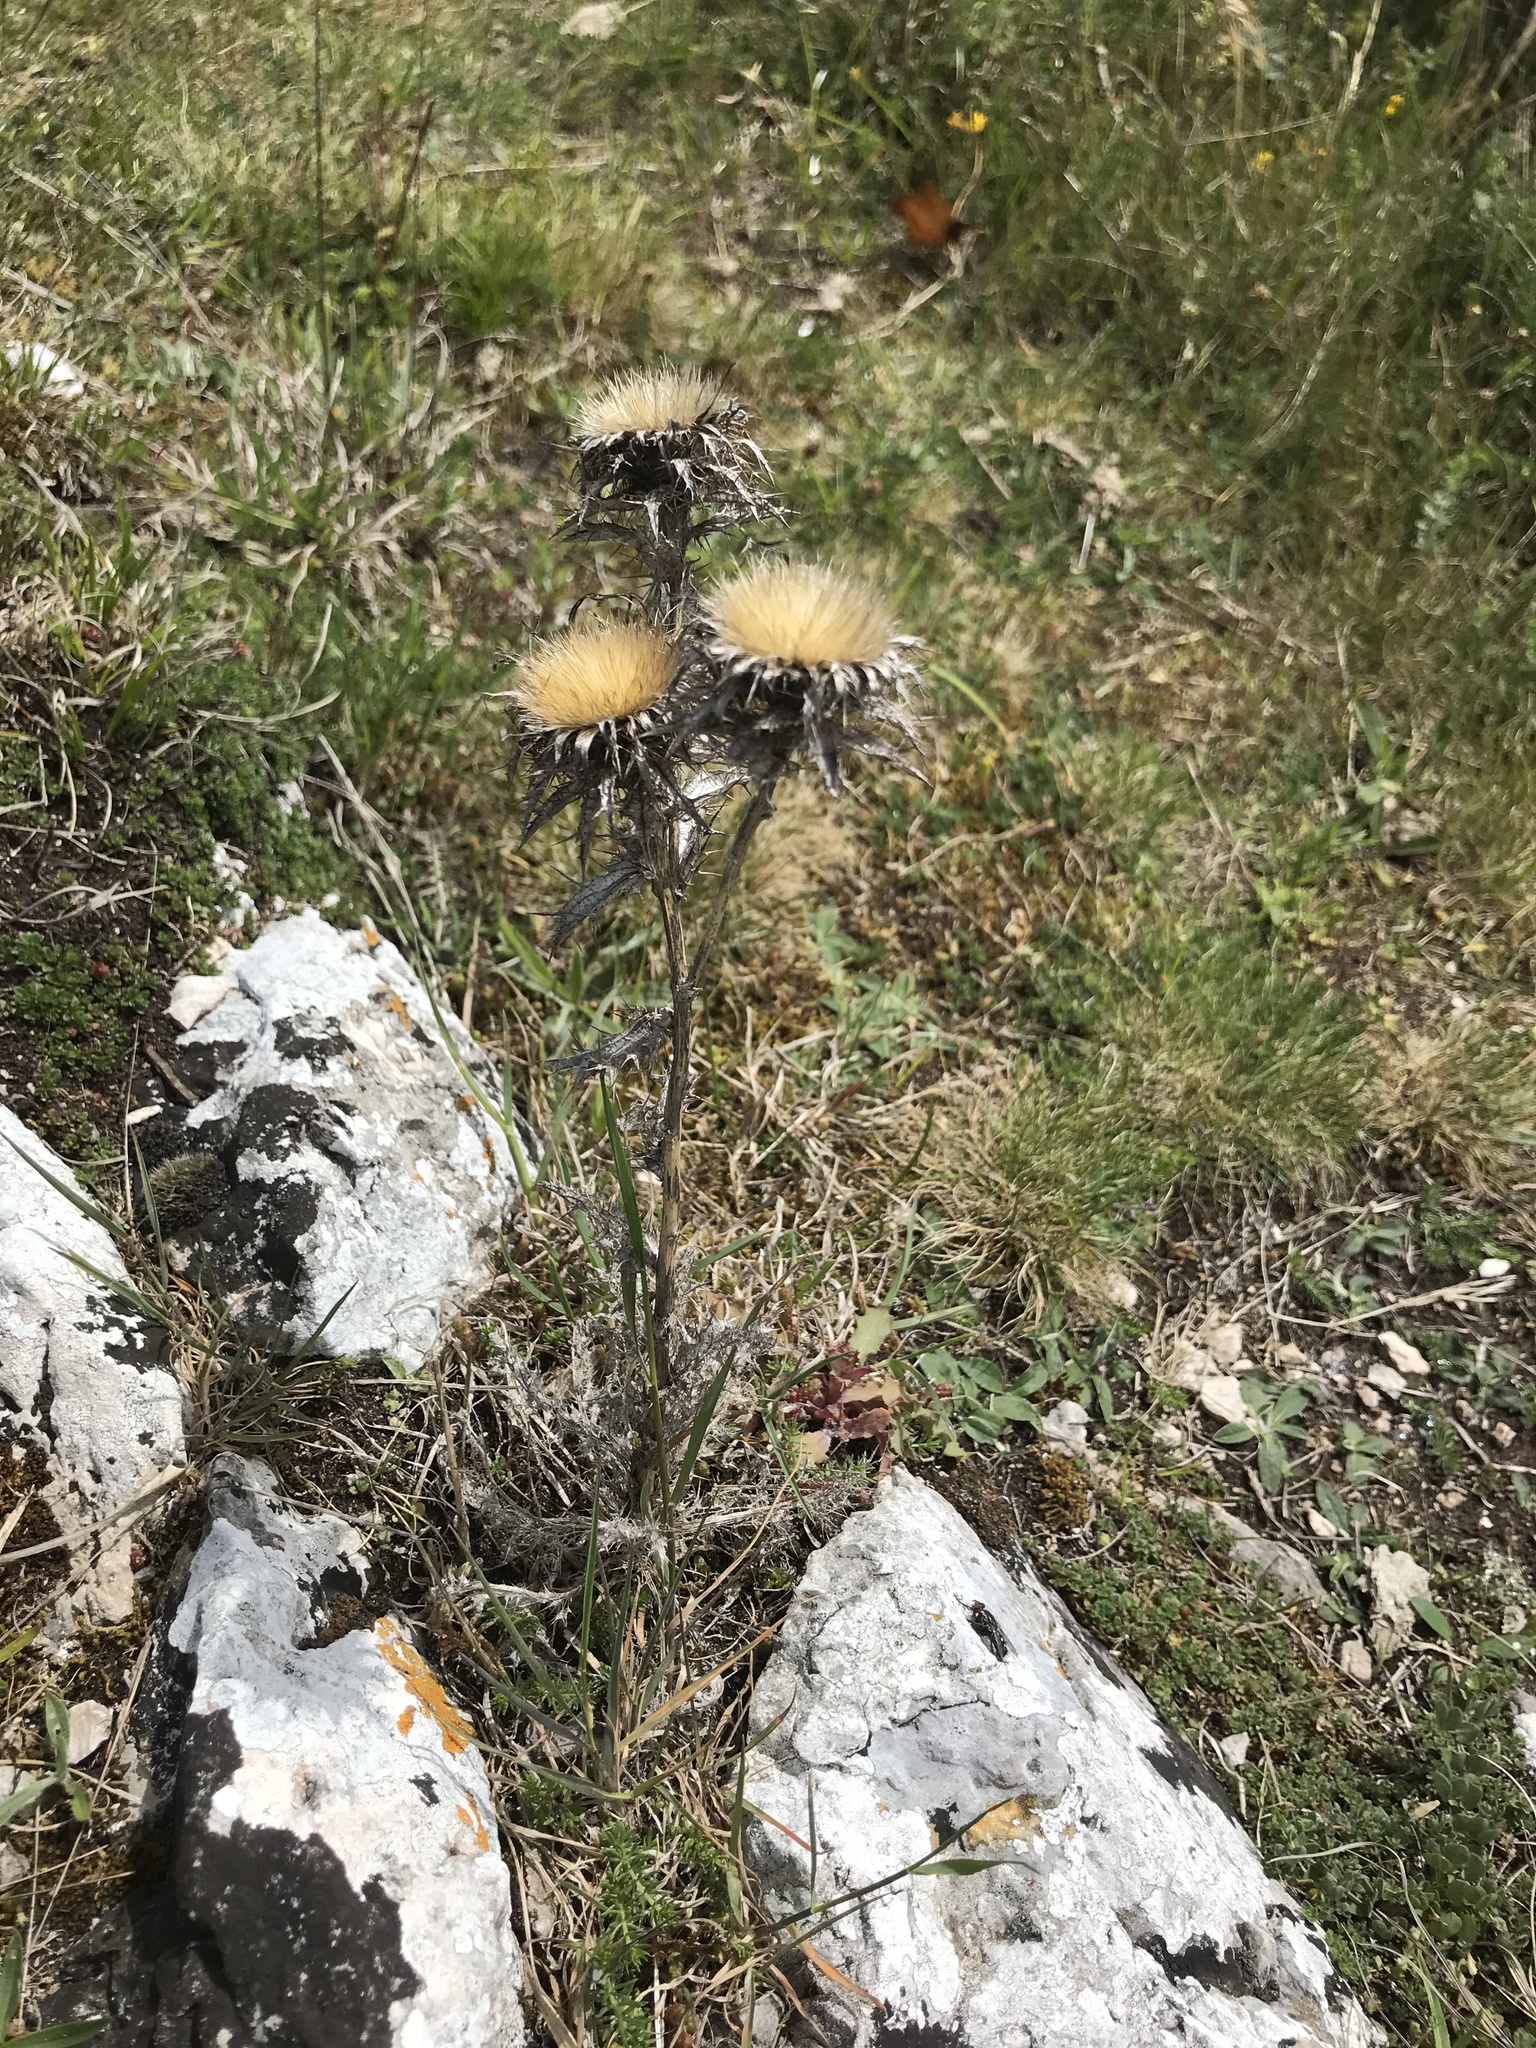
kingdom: Plantae
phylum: Tracheophyta
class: Magnoliopsida
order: Asterales
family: Asteraceae
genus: Carlina
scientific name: Carlina vulgaris
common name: Carline thistle
